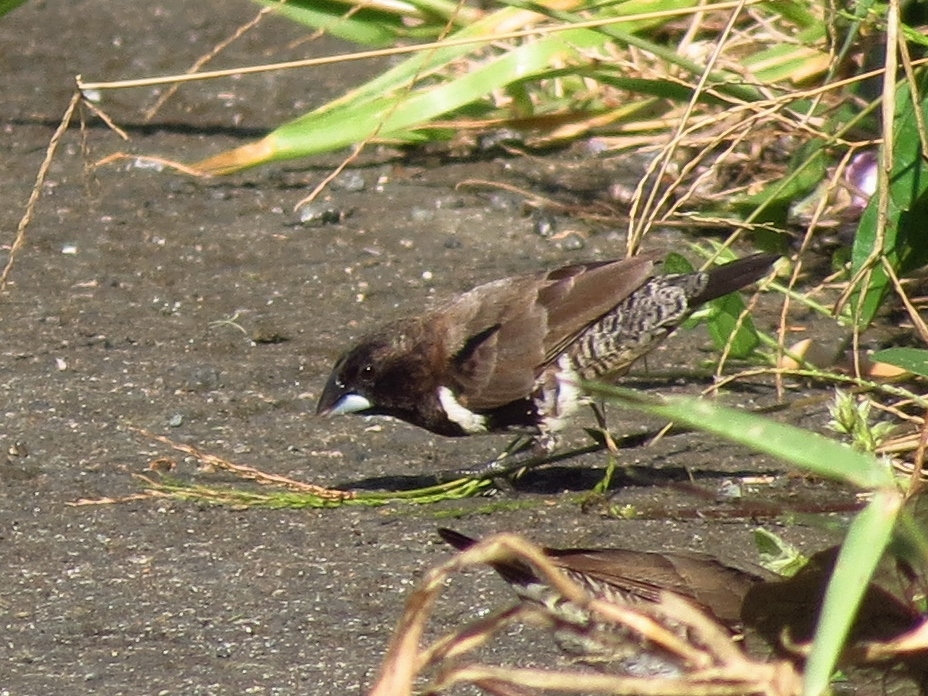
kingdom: Animalia
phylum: Chordata
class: Aves
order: Passeriformes
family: Estrildidae
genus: Lonchura
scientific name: Lonchura cucullata
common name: Bronze mannikin
